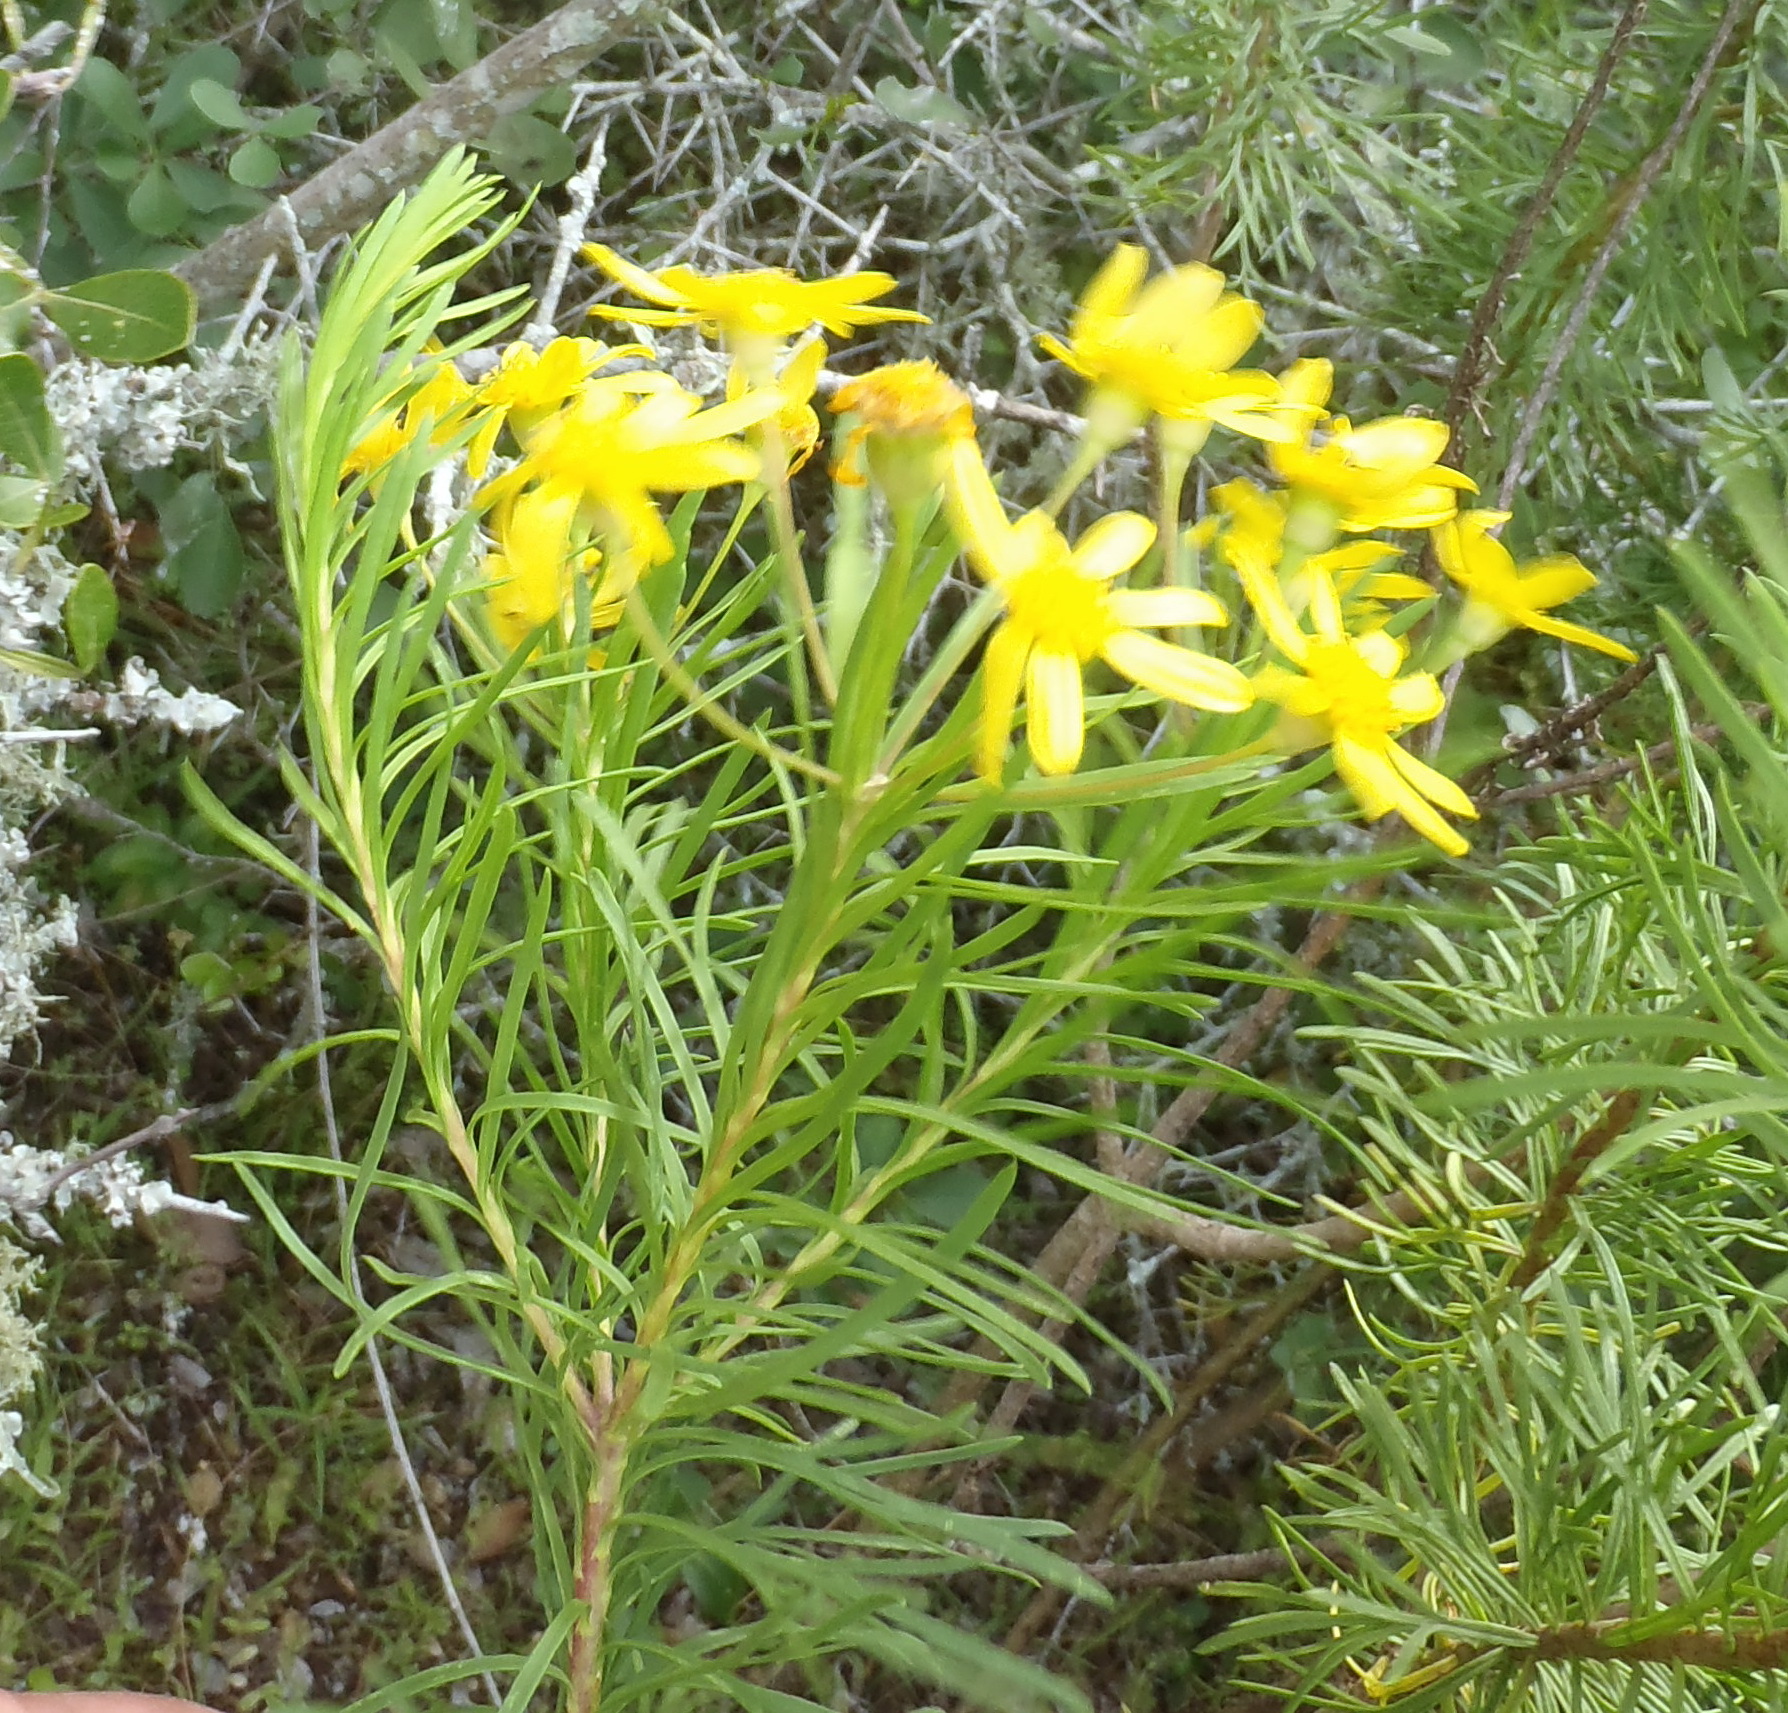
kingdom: Plantae
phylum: Tracheophyta
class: Magnoliopsida
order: Asterales
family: Asteraceae
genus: Euryops
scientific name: Euryops linearis
